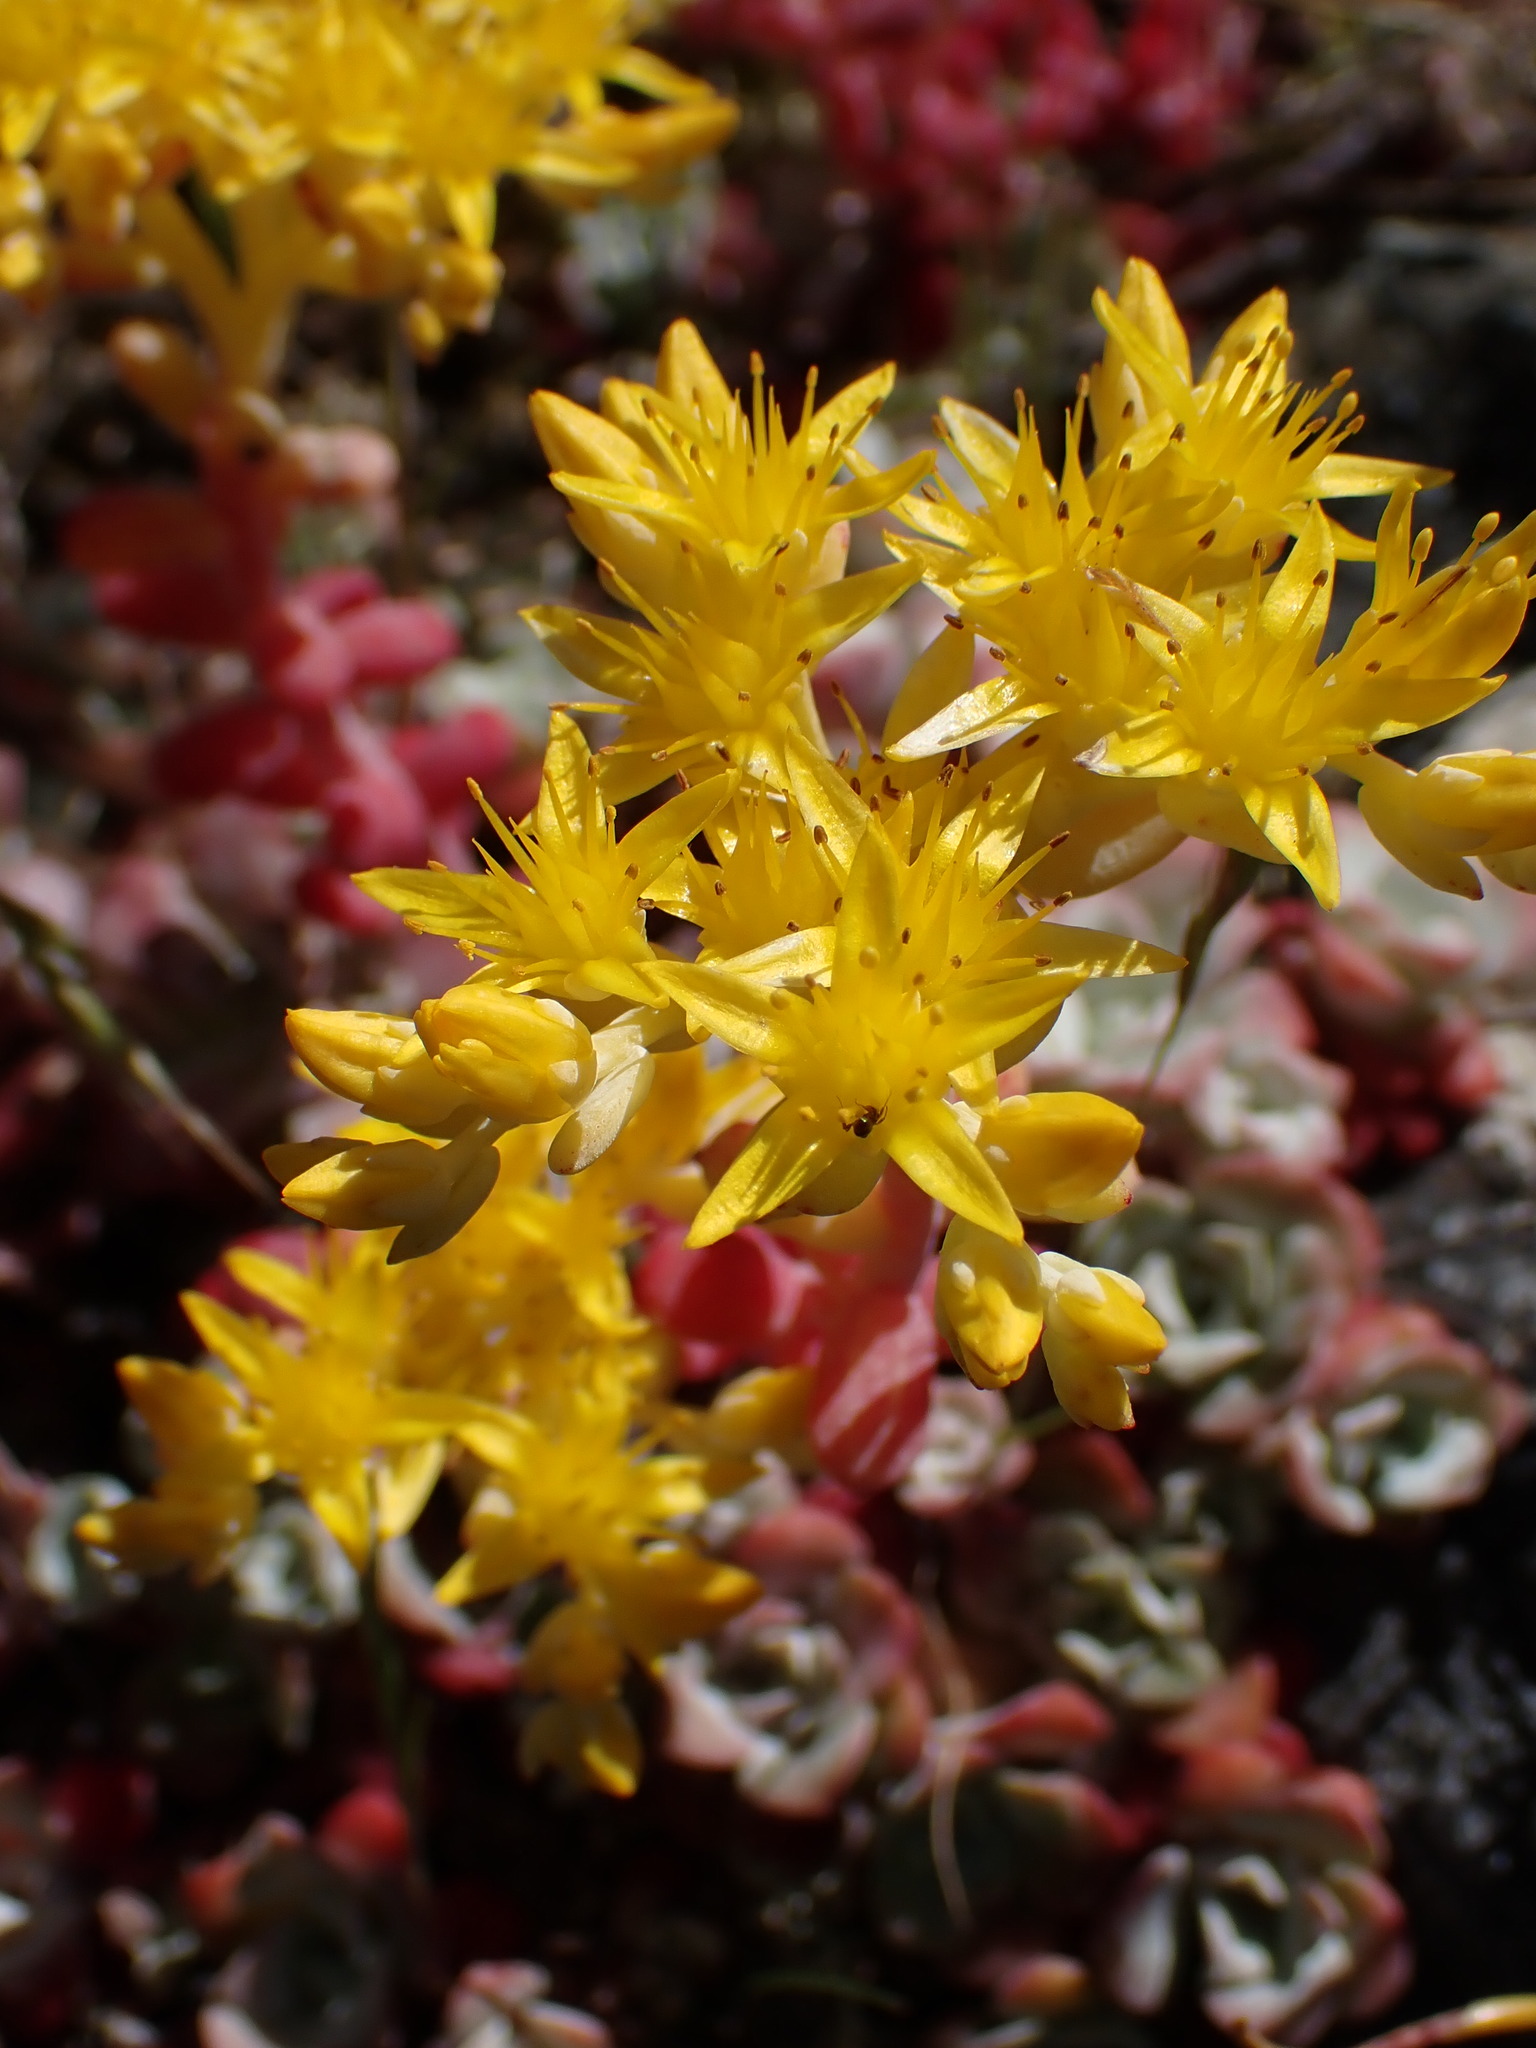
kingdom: Plantae
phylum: Tracheophyta
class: Magnoliopsida
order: Saxifragales
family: Crassulaceae
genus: Sedum
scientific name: Sedum spathulifolium
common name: Colorado stonecrop
